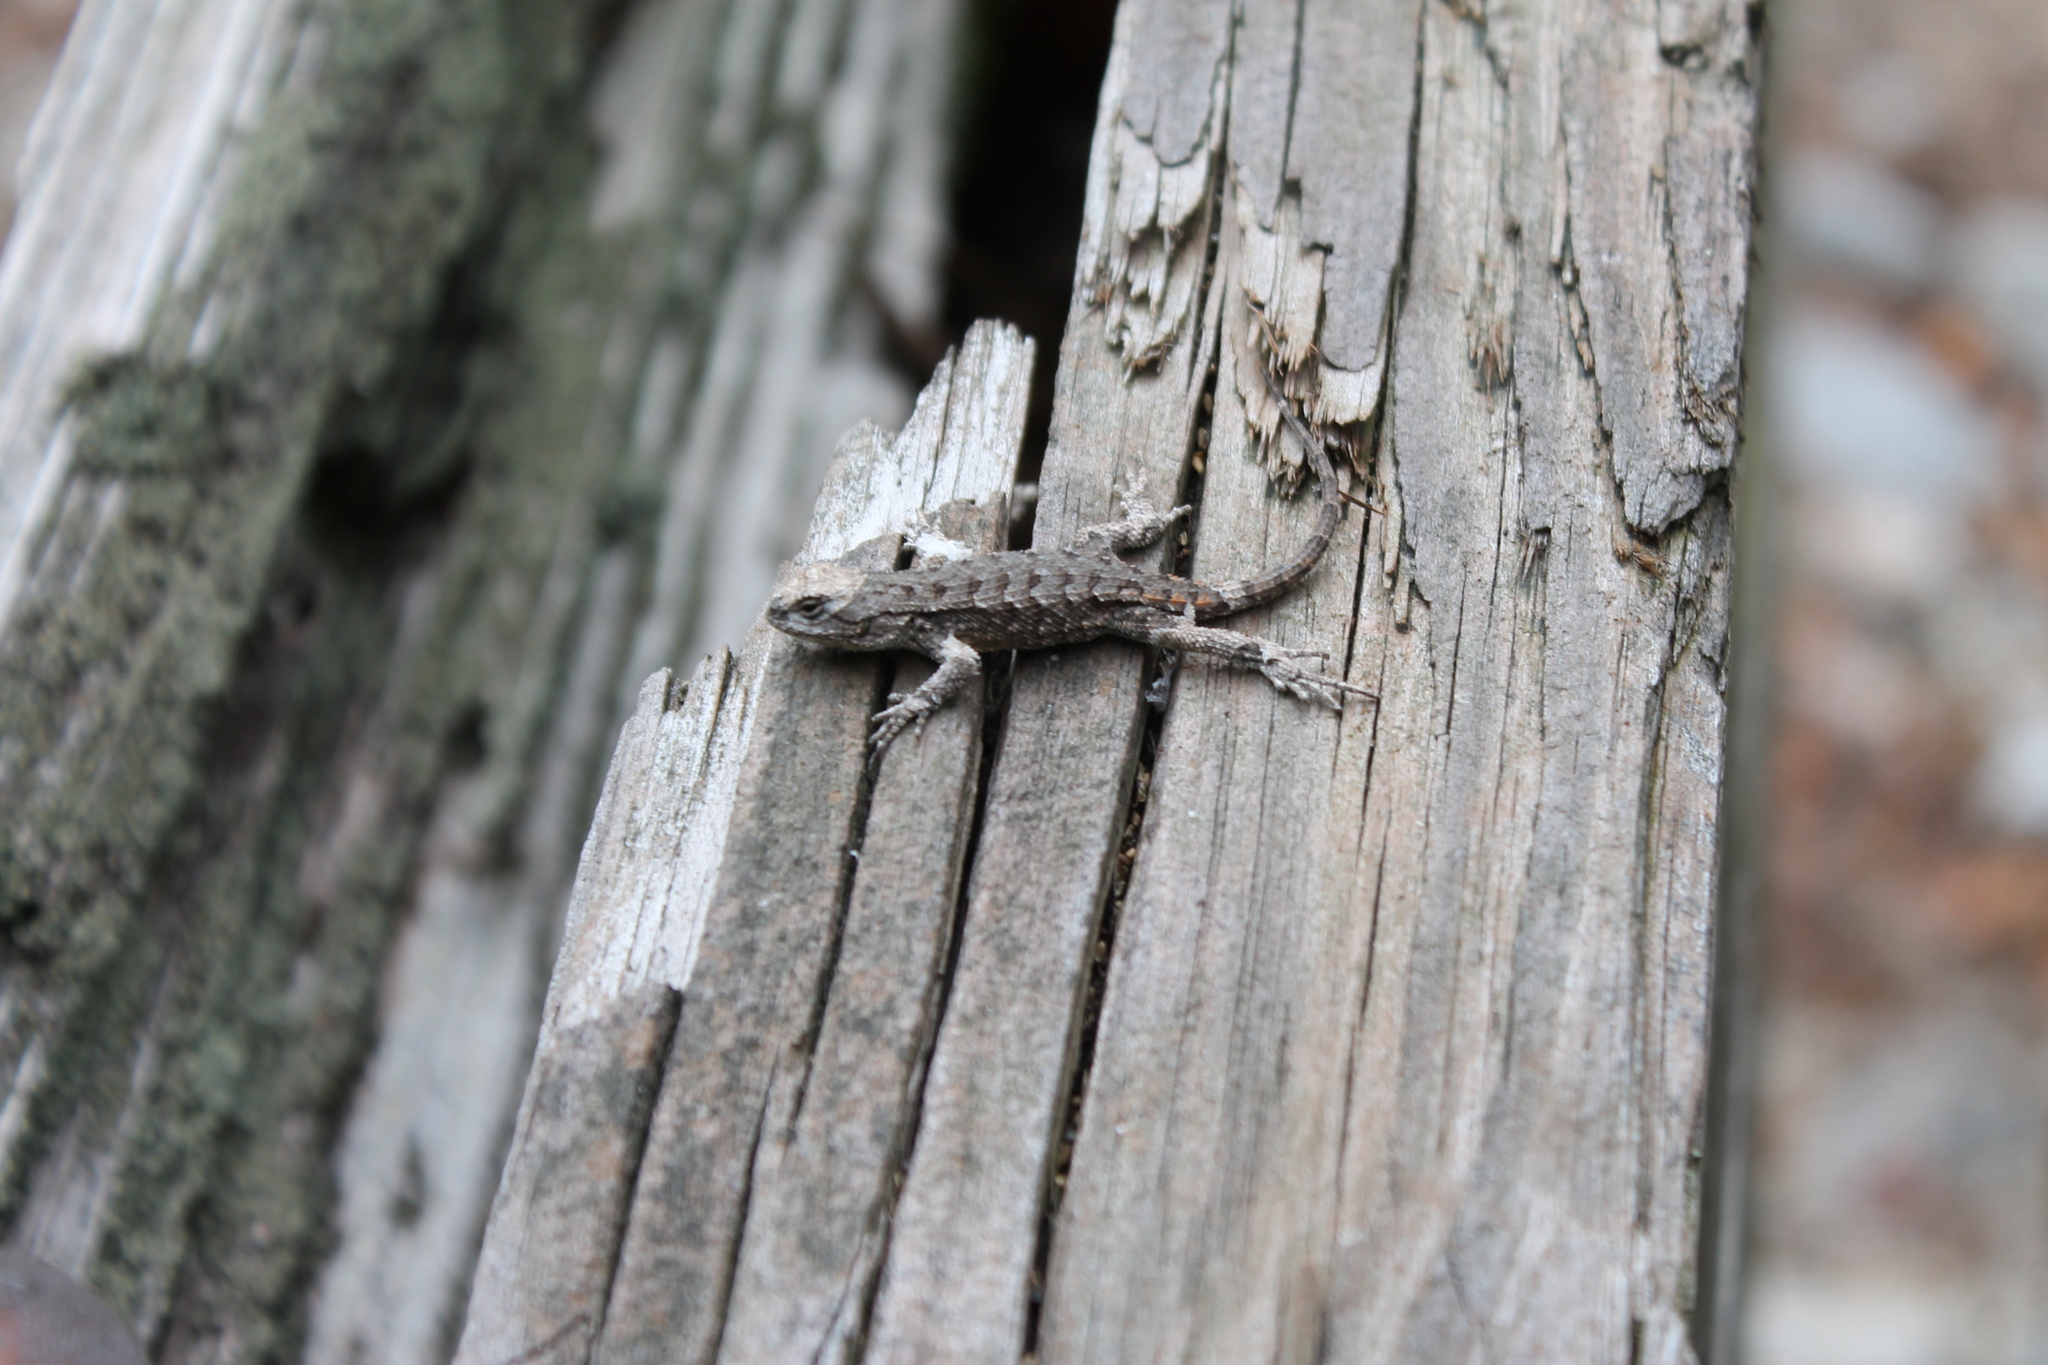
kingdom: Animalia
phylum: Chordata
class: Squamata
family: Phrynosomatidae
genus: Sceloporus
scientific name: Sceloporus undulatus
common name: Eastern fence lizard
